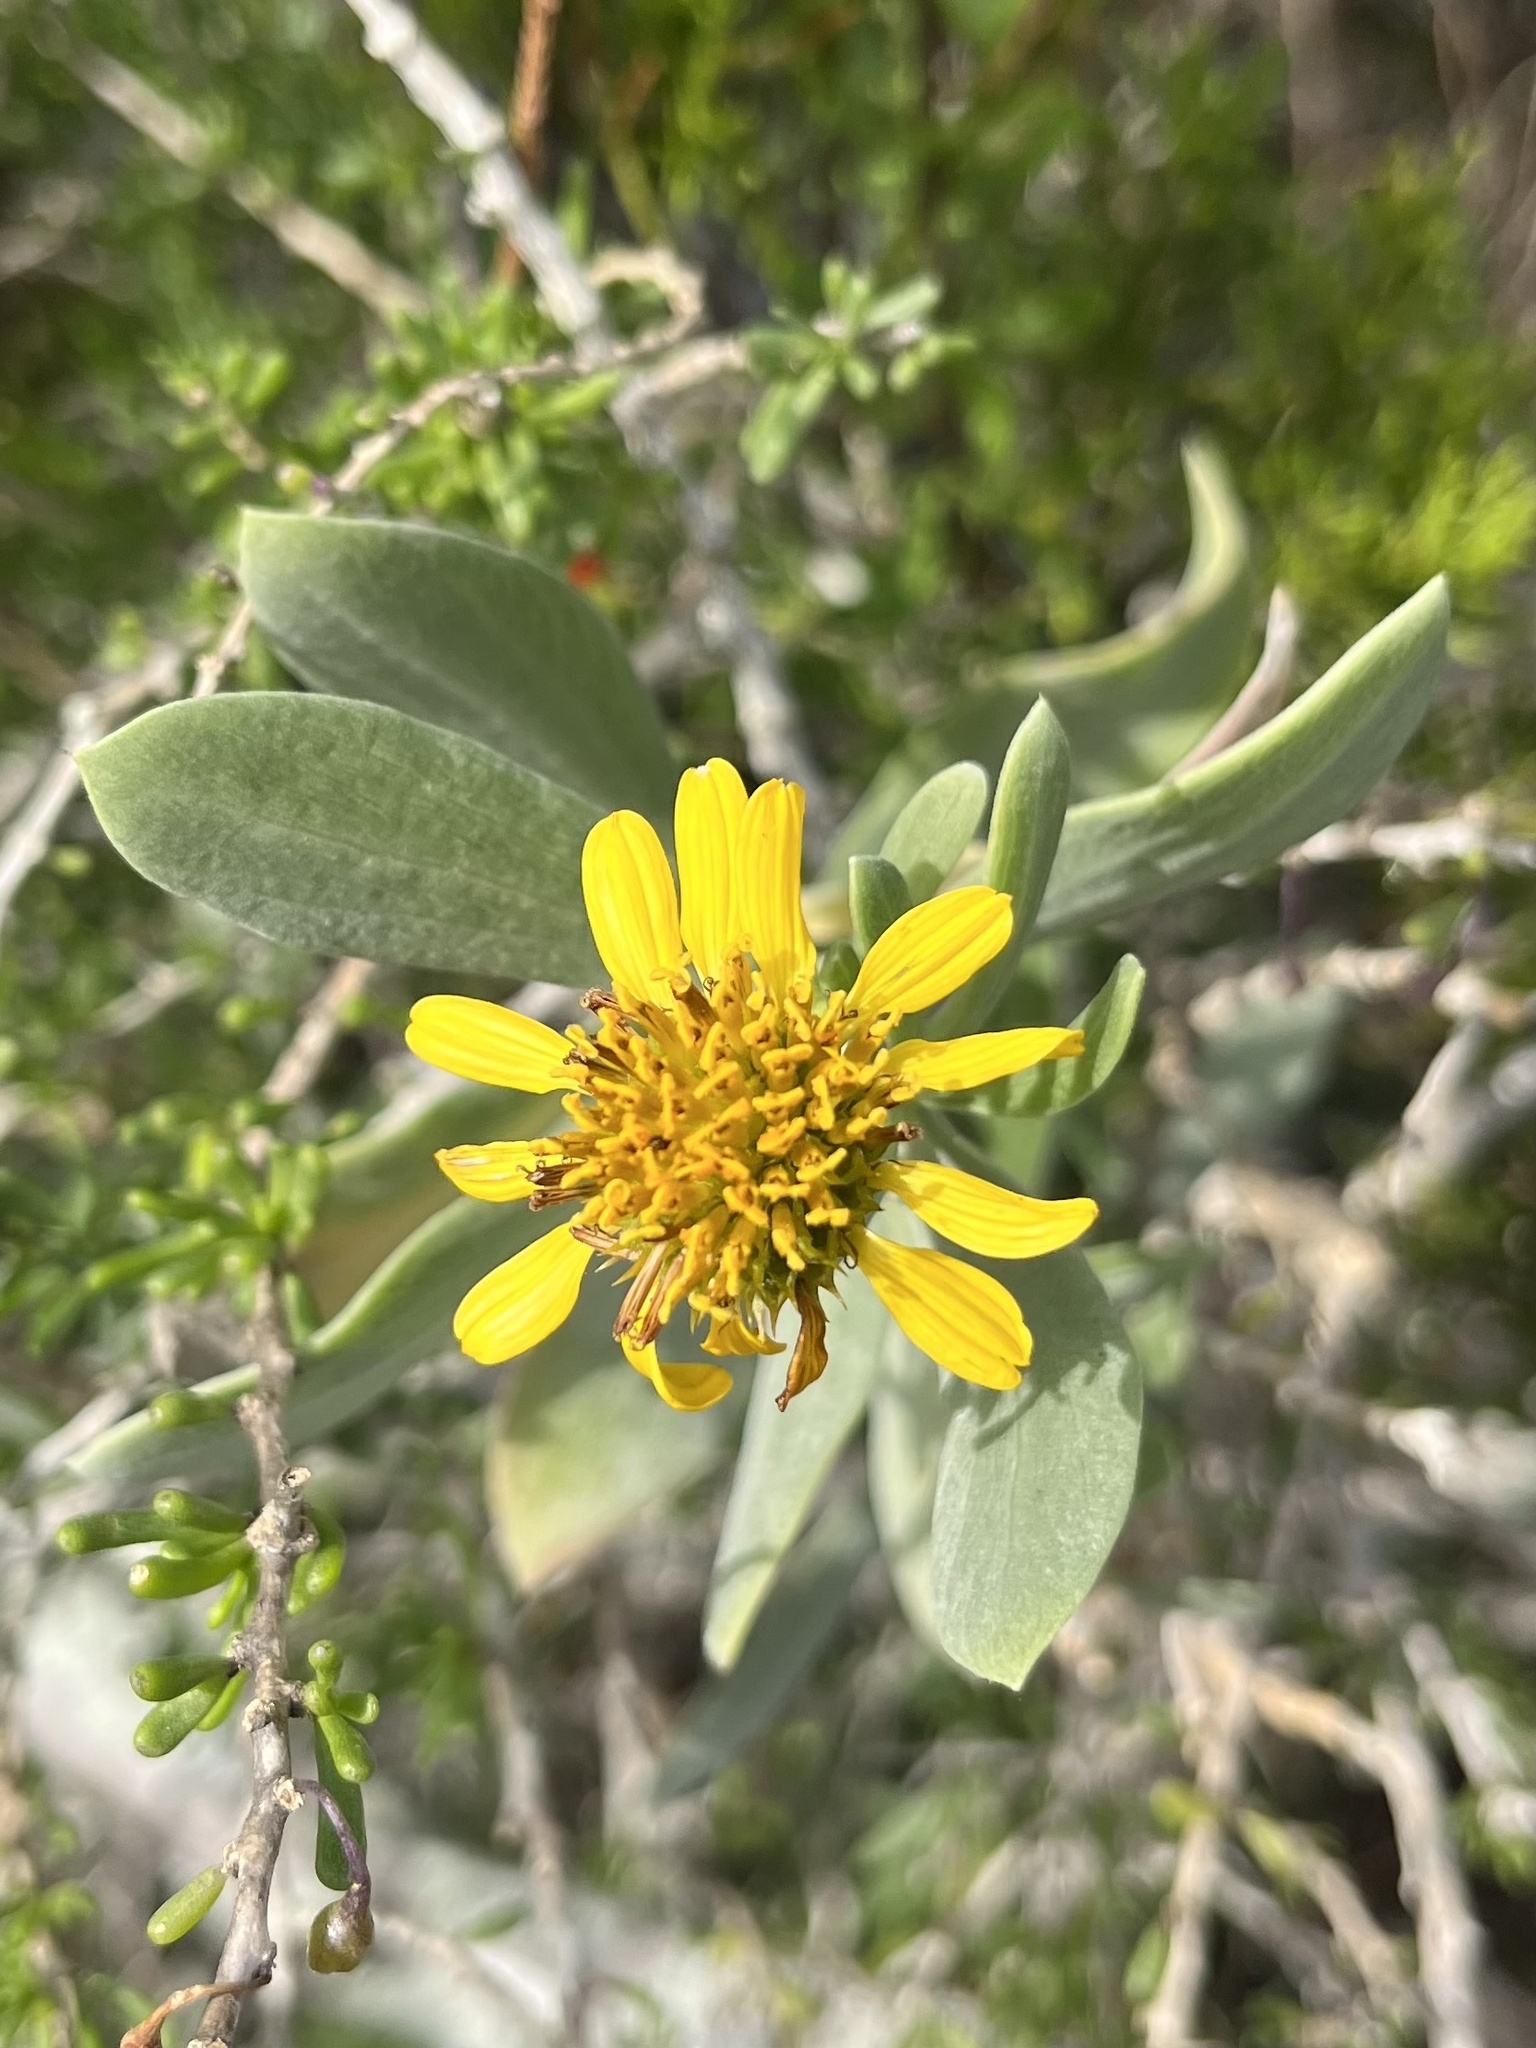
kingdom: Plantae
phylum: Tracheophyta
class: Magnoliopsida
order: Asterales
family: Asteraceae
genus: Borrichia
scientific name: Borrichia frutescens
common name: Sea oxeye
